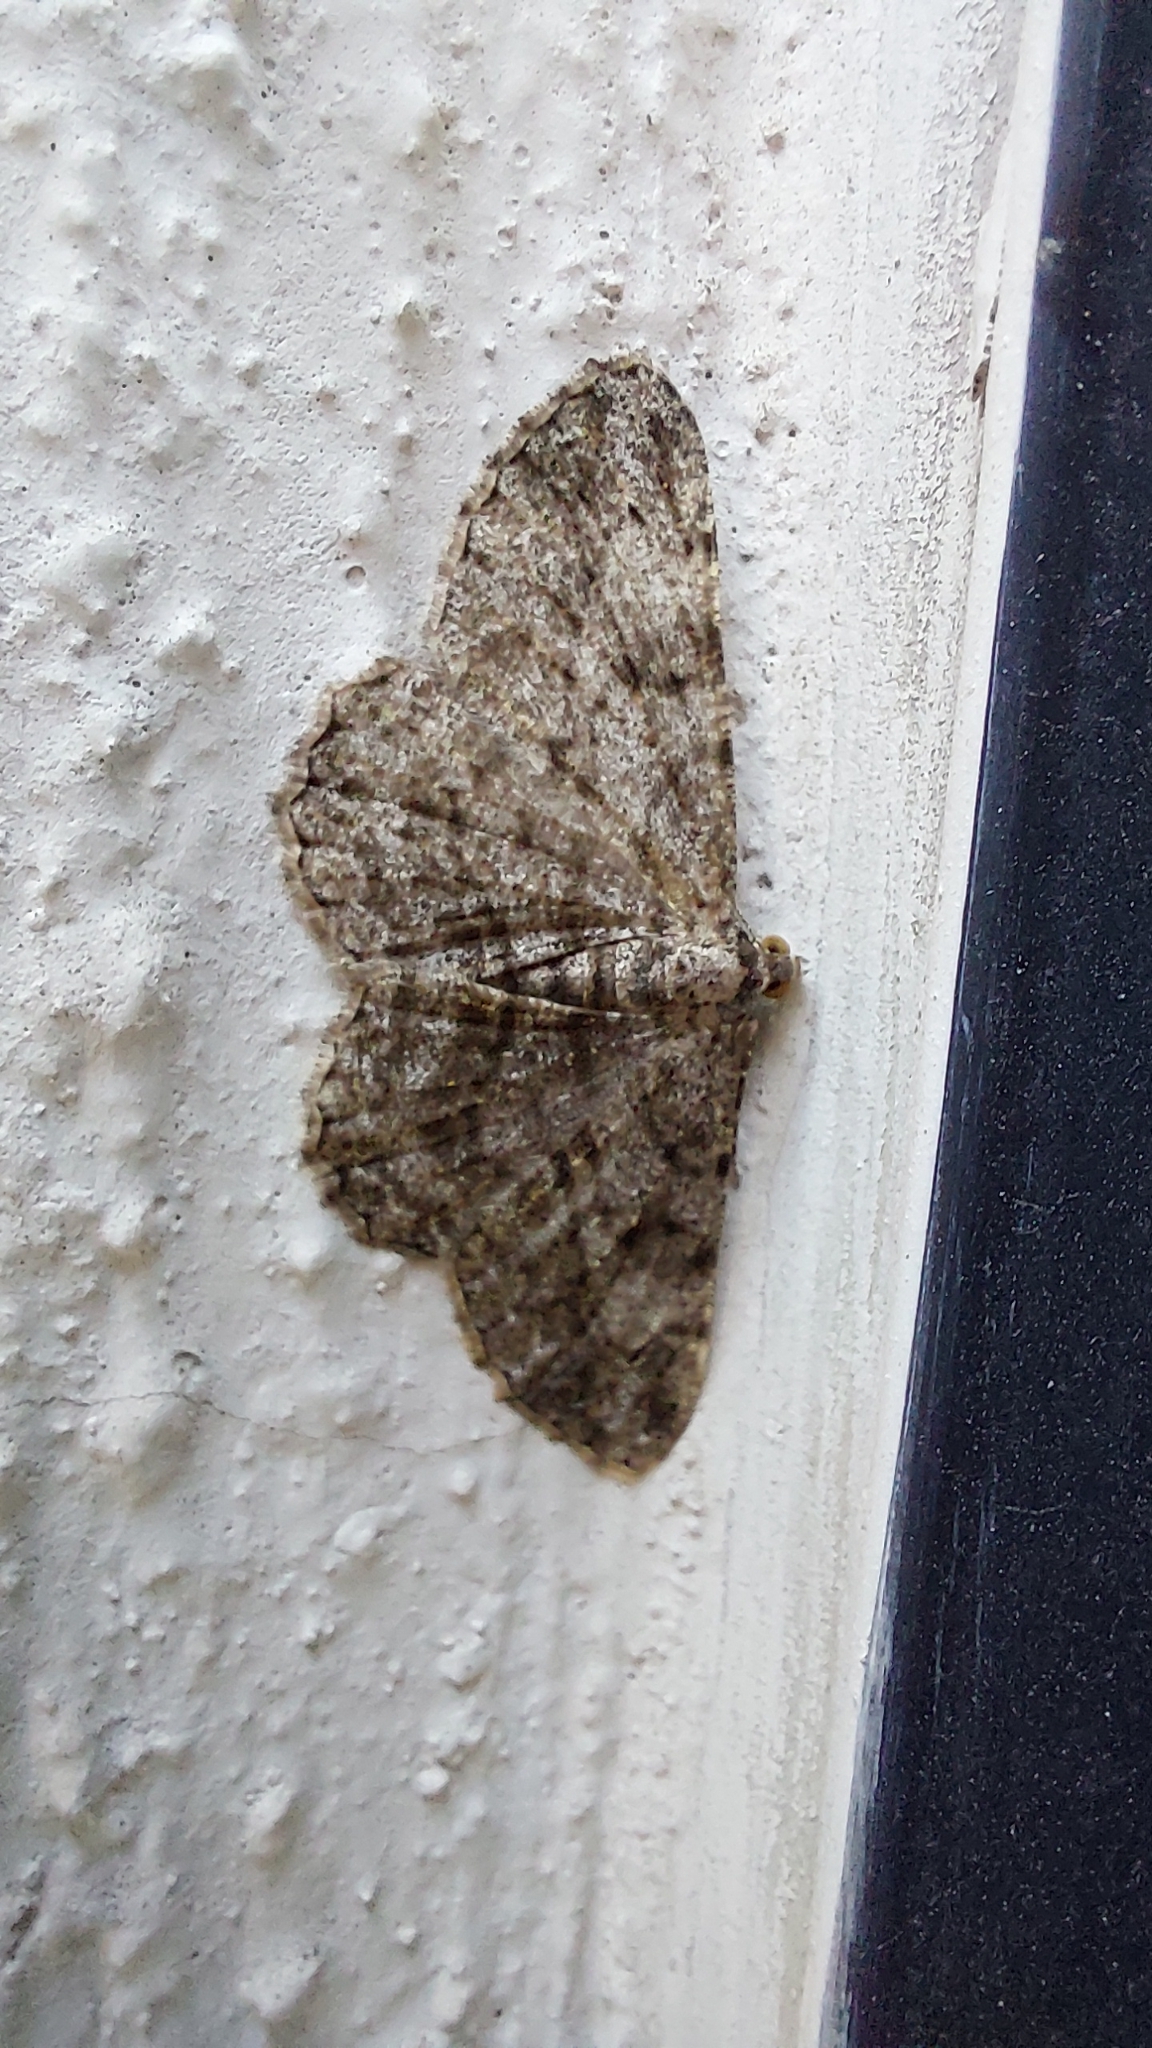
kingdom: Animalia
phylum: Arthropoda
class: Insecta
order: Lepidoptera
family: Geometridae
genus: Peribatodes
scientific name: Peribatodes rhomboidaria
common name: Willow beauty
